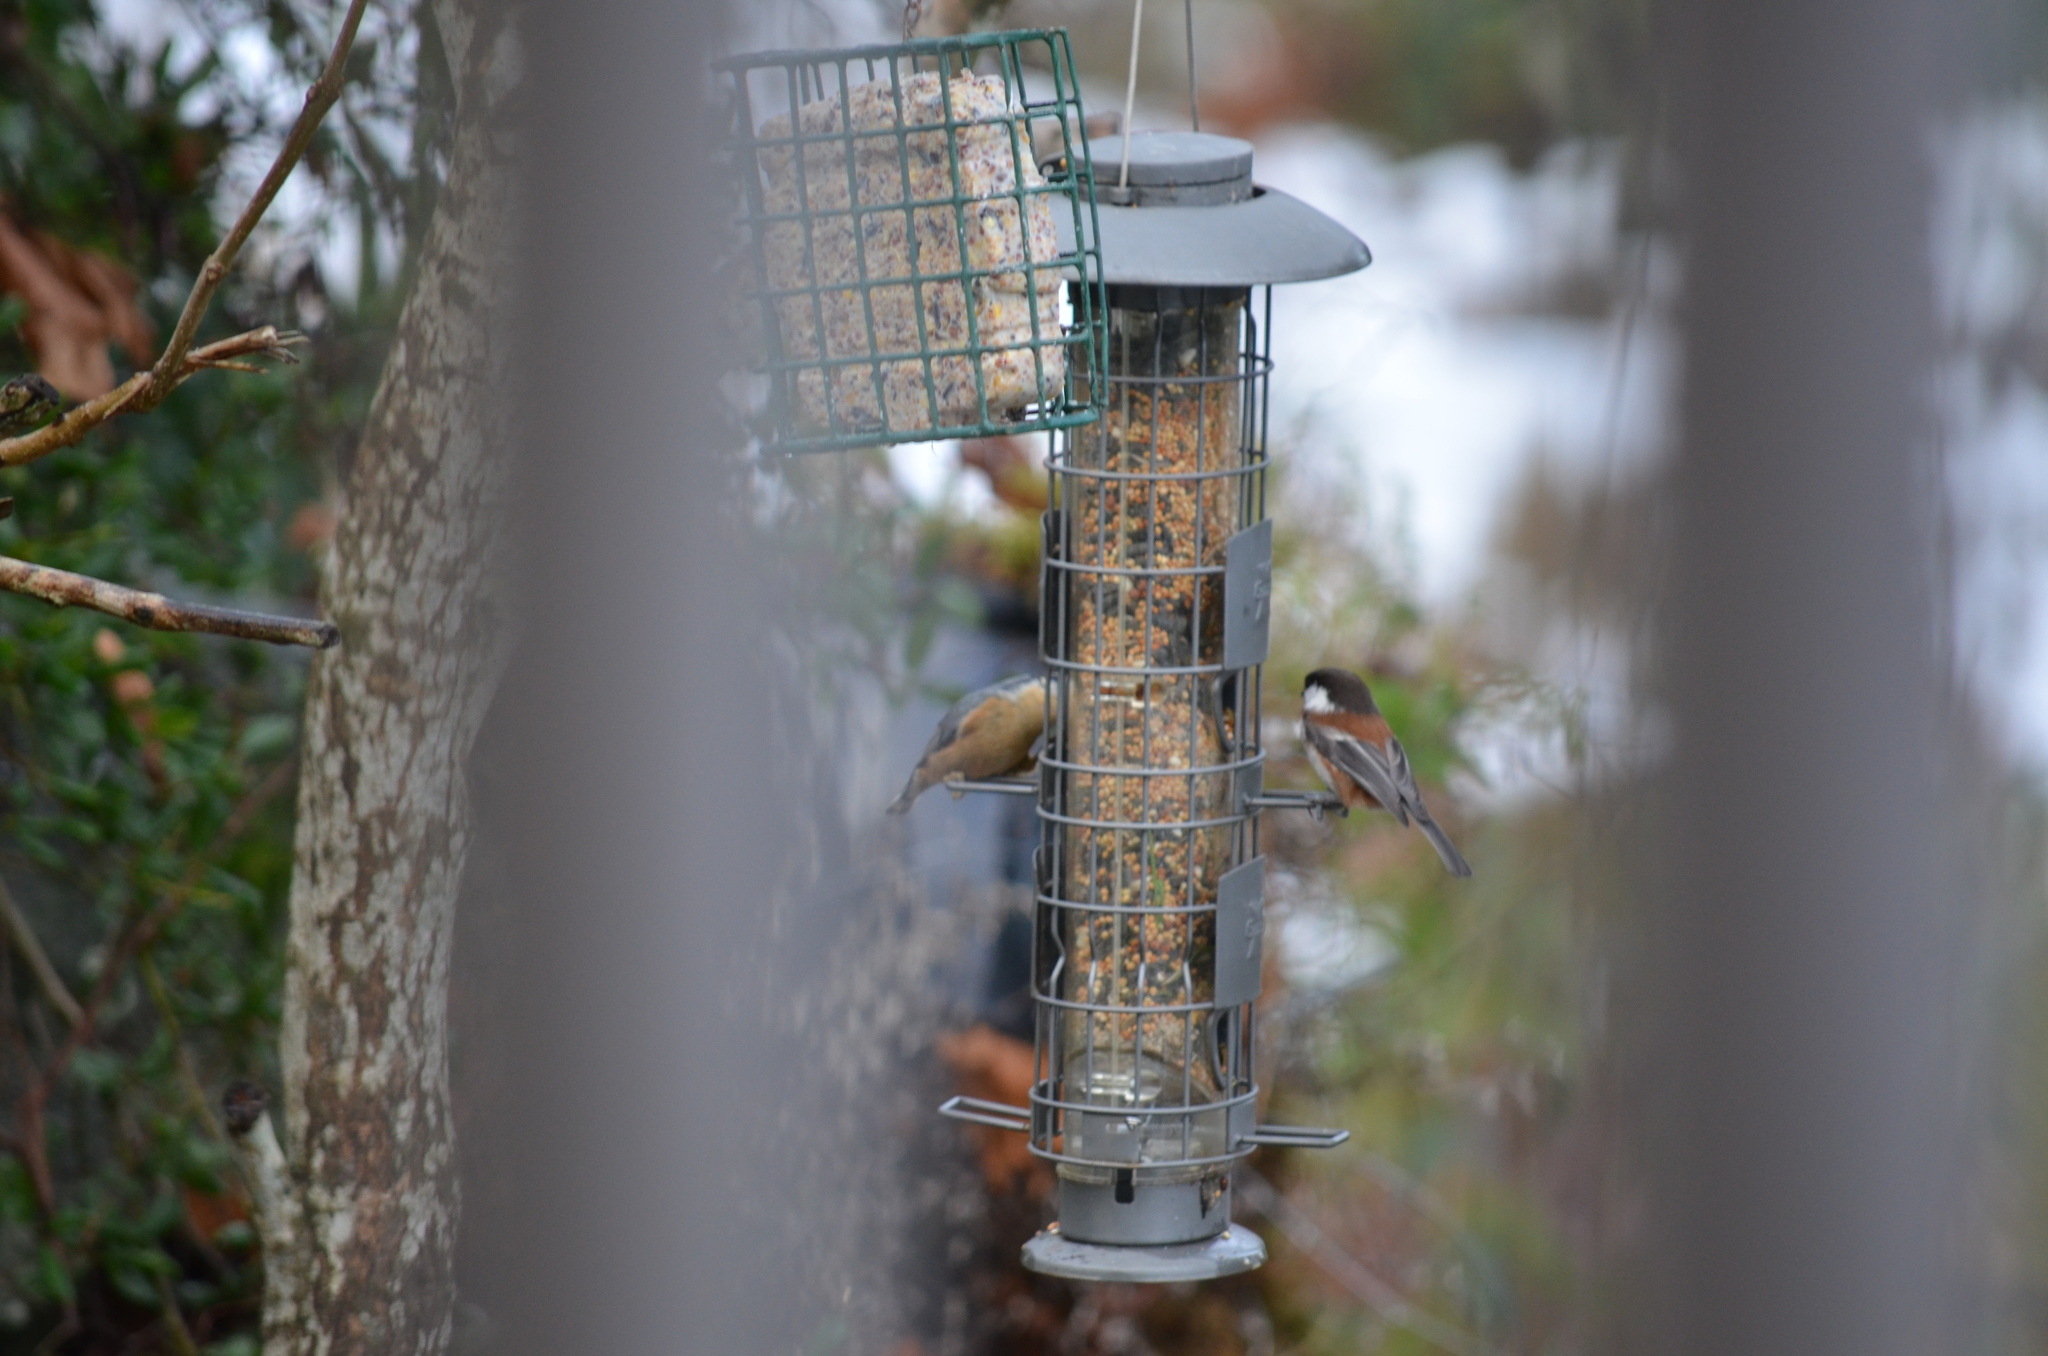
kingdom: Animalia
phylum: Chordata
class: Aves
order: Passeriformes
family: Paridae
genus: Poecile
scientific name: Poecile rufescens
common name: Chestnut-backed chickadee
